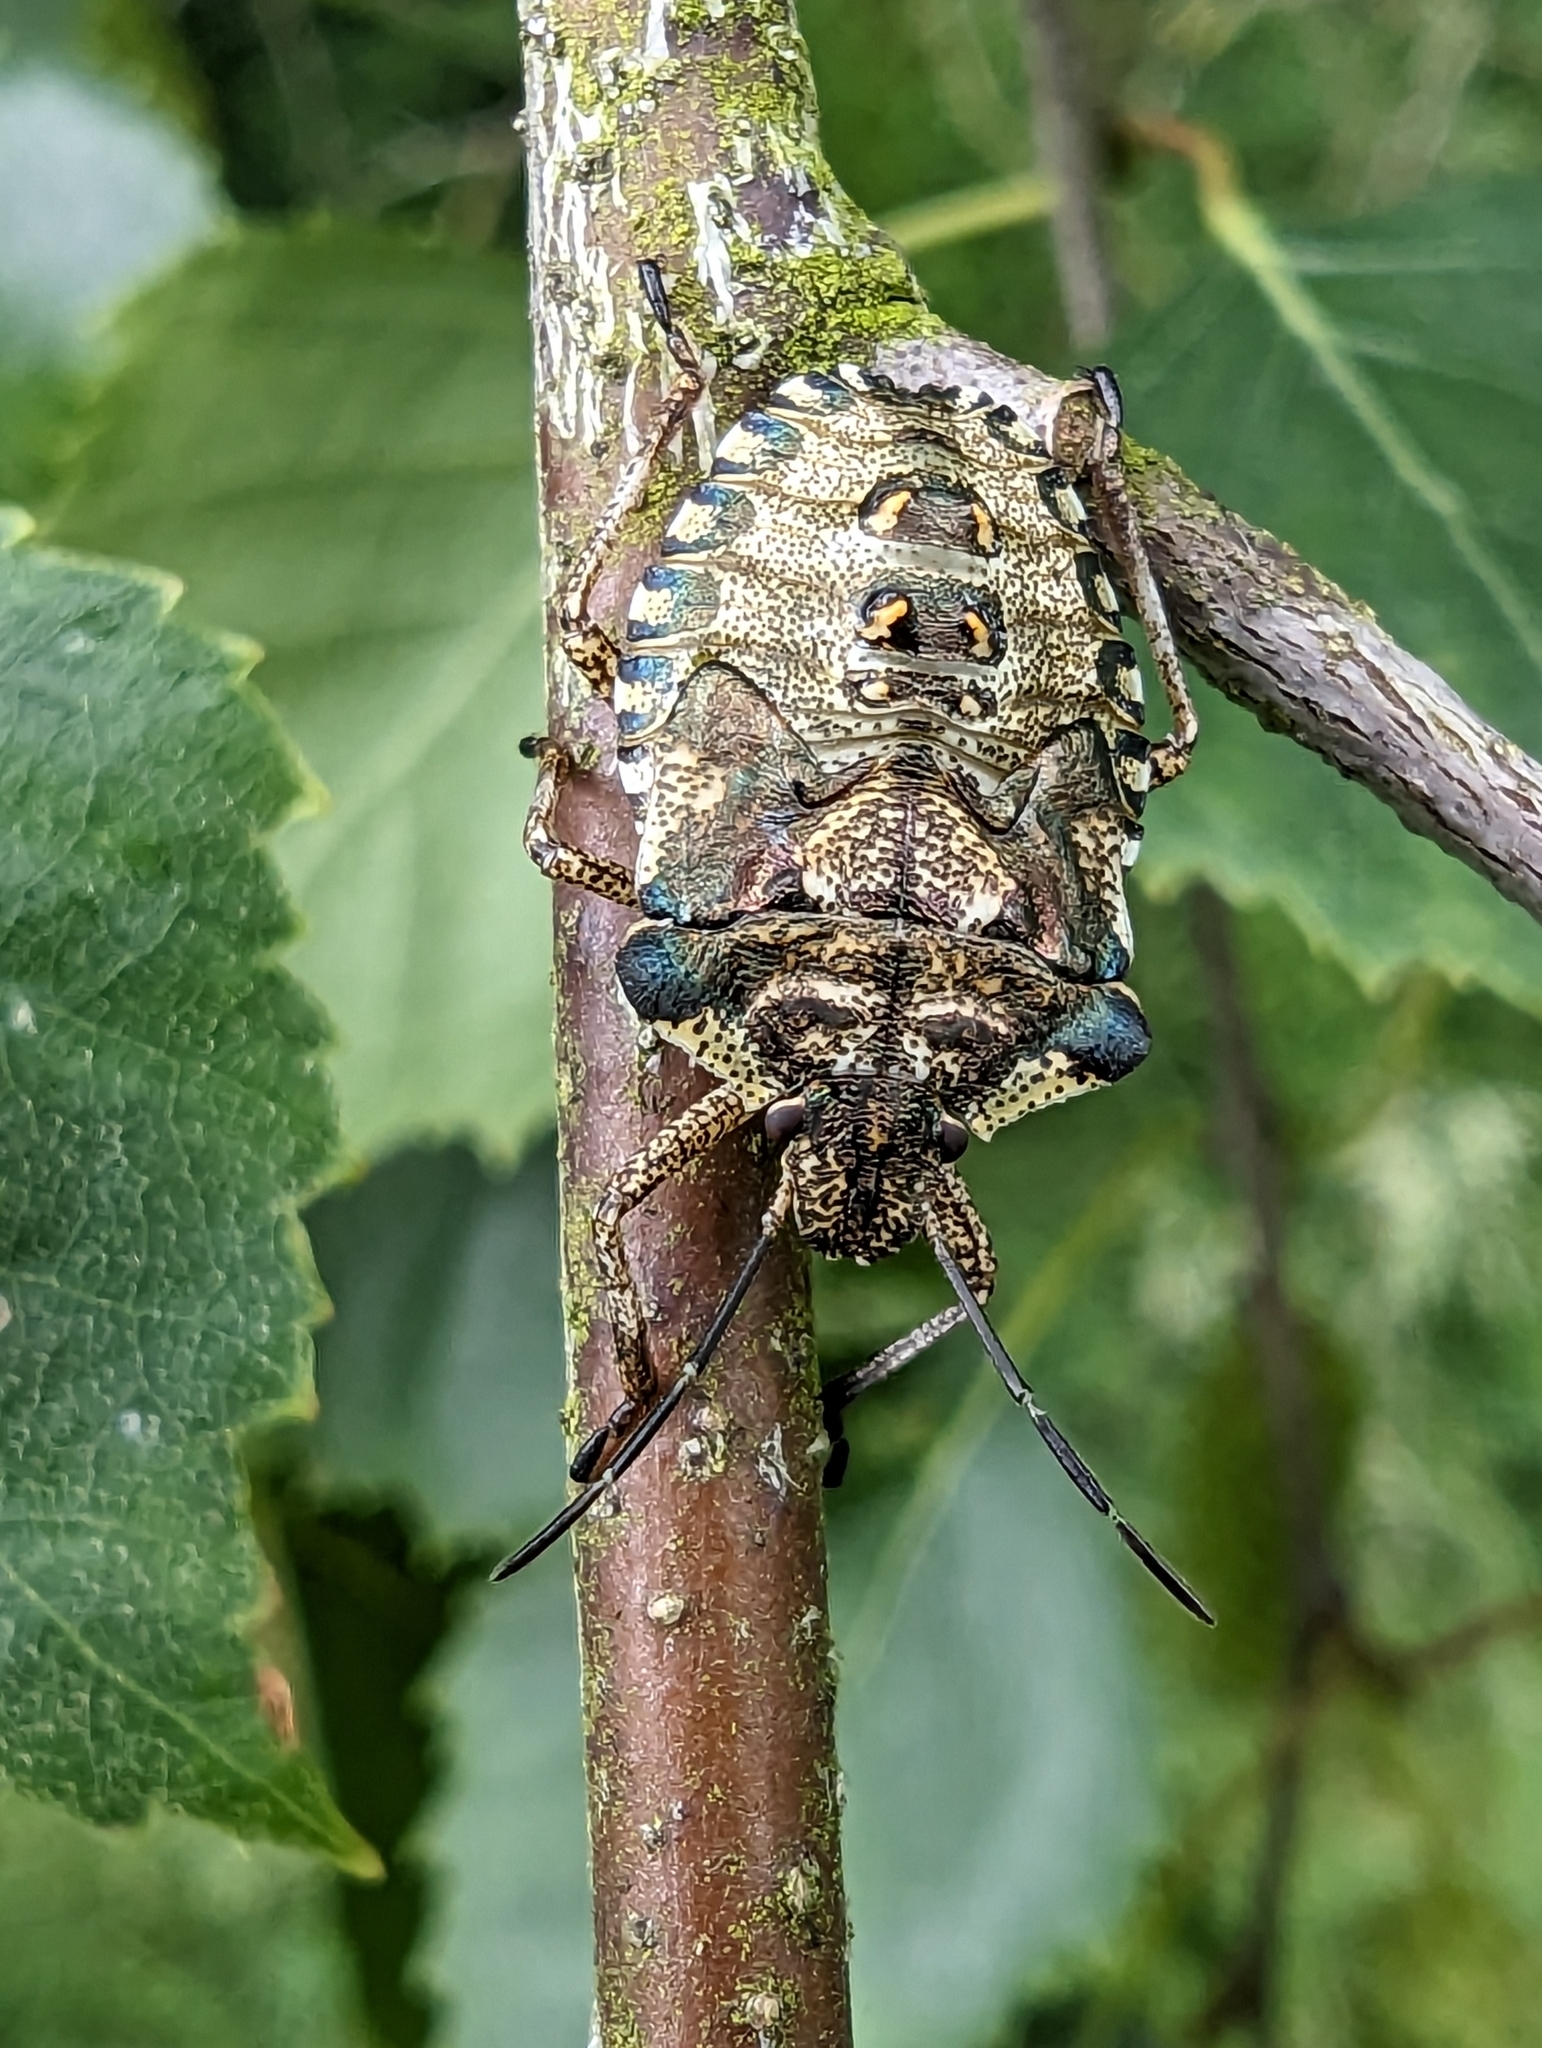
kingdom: Animalia
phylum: Arthropoda
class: Insecta
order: Hemiptera
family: Pentatomidae
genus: Pentatoma
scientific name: Pentatoma rufipes
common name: Forest bug
